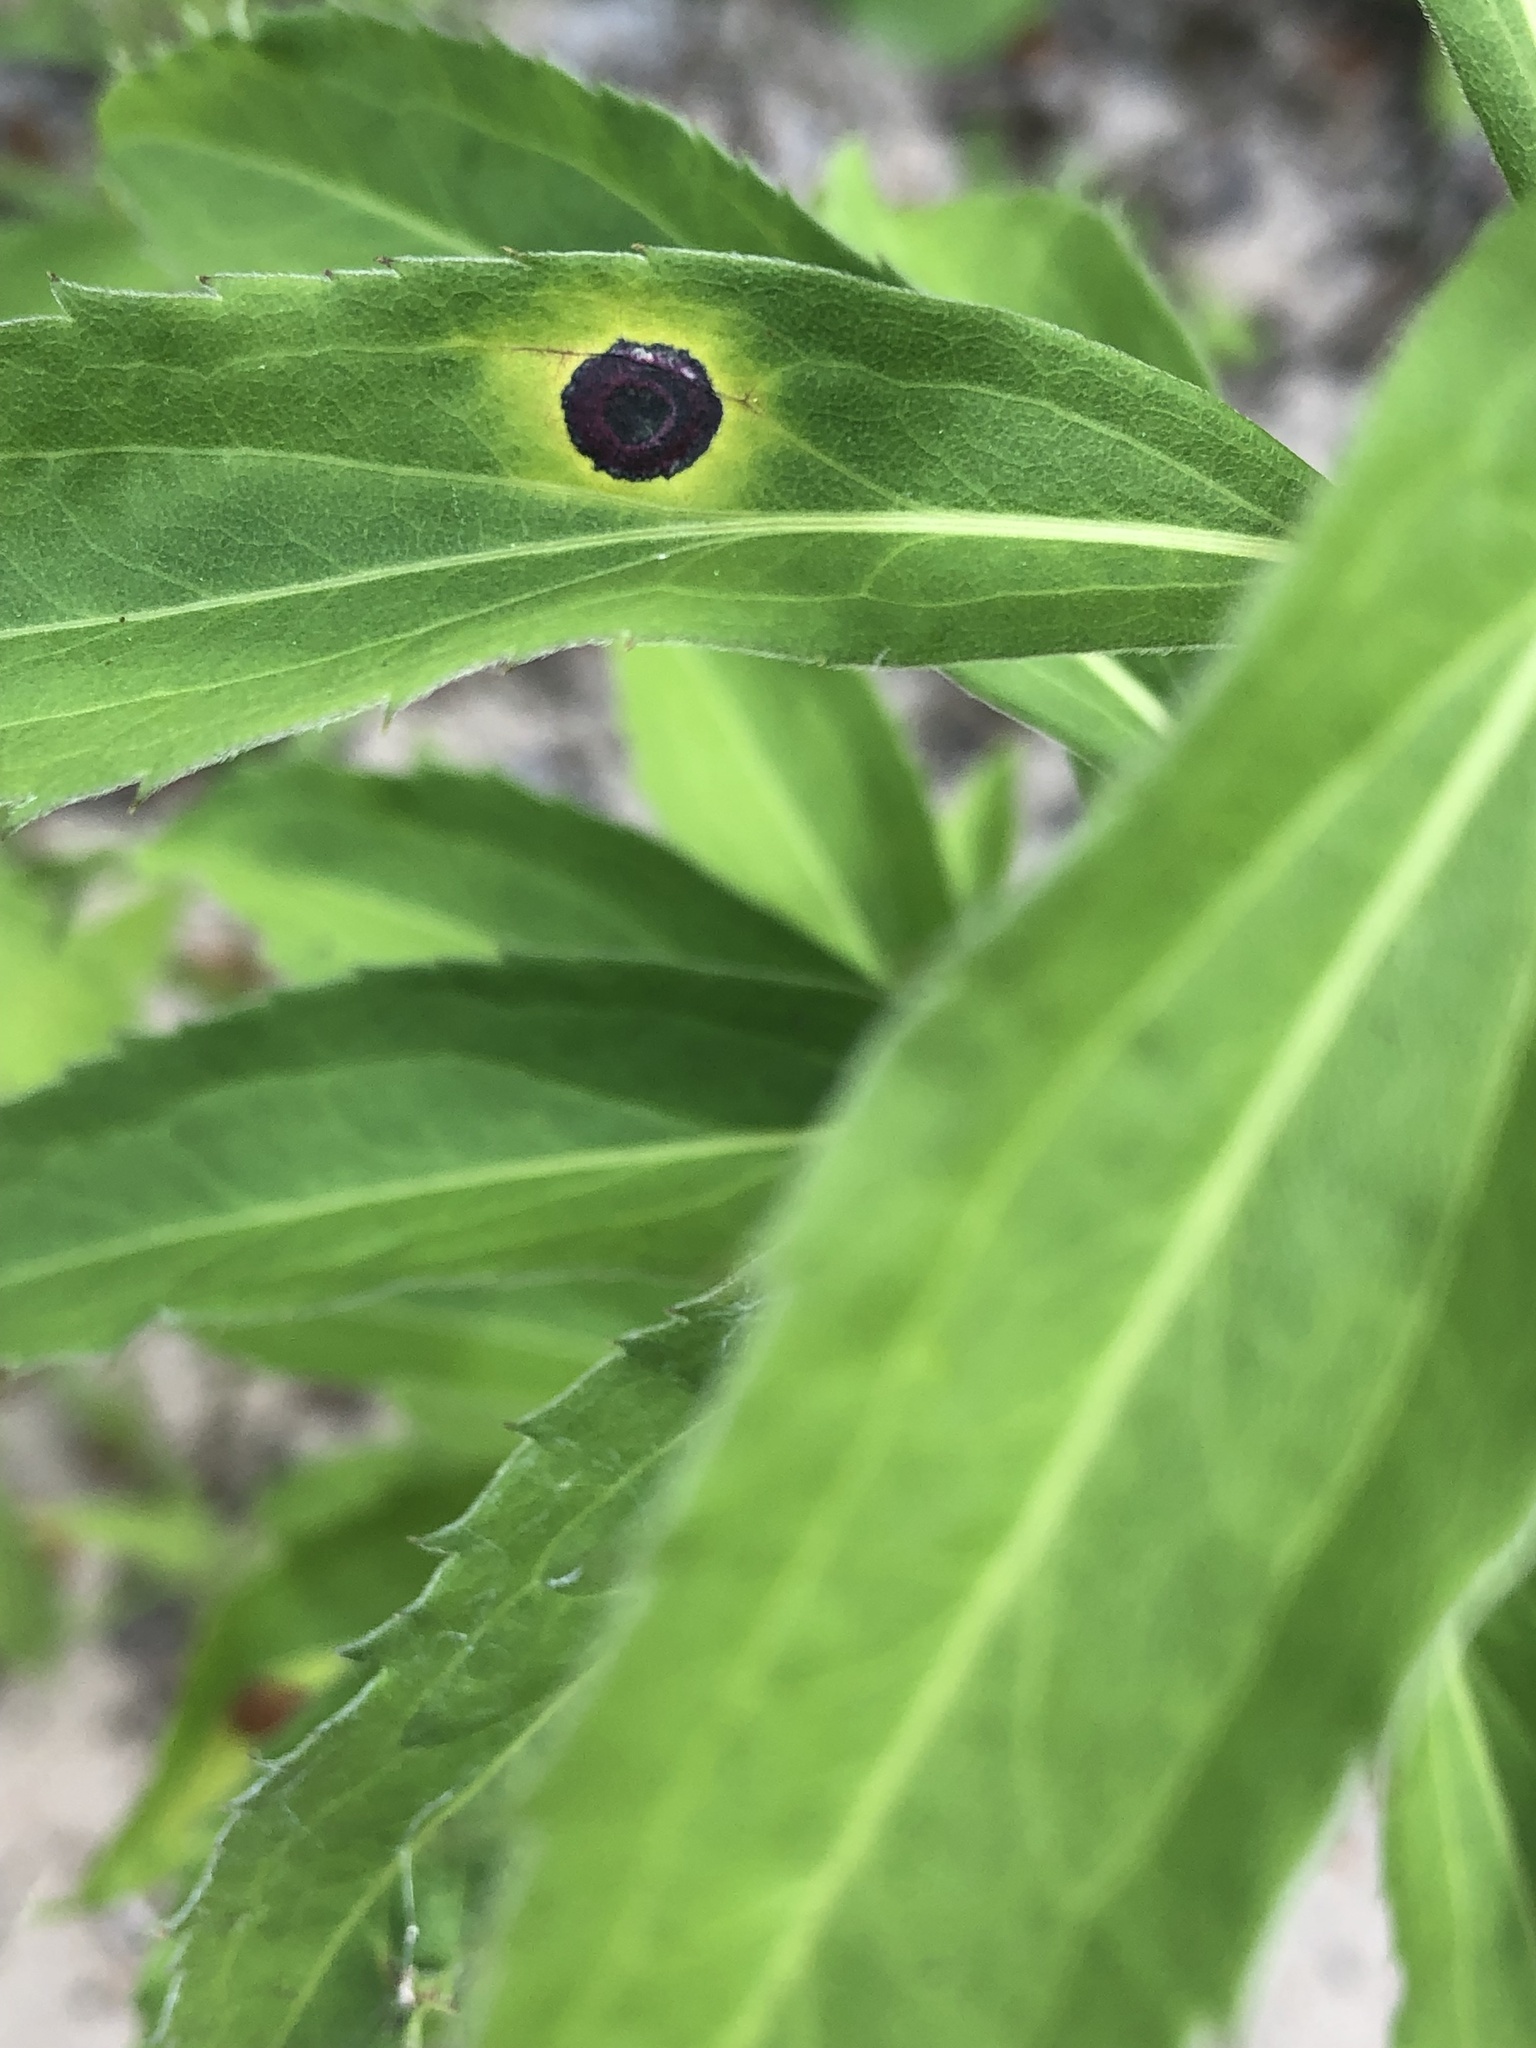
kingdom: Animalia
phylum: Arthropoda
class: Insecta
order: Diptera
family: Cecidomyiidae
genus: Asteromyia
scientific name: Asteromyia carbonifera
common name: Carbonifera goldenrod gall midge
